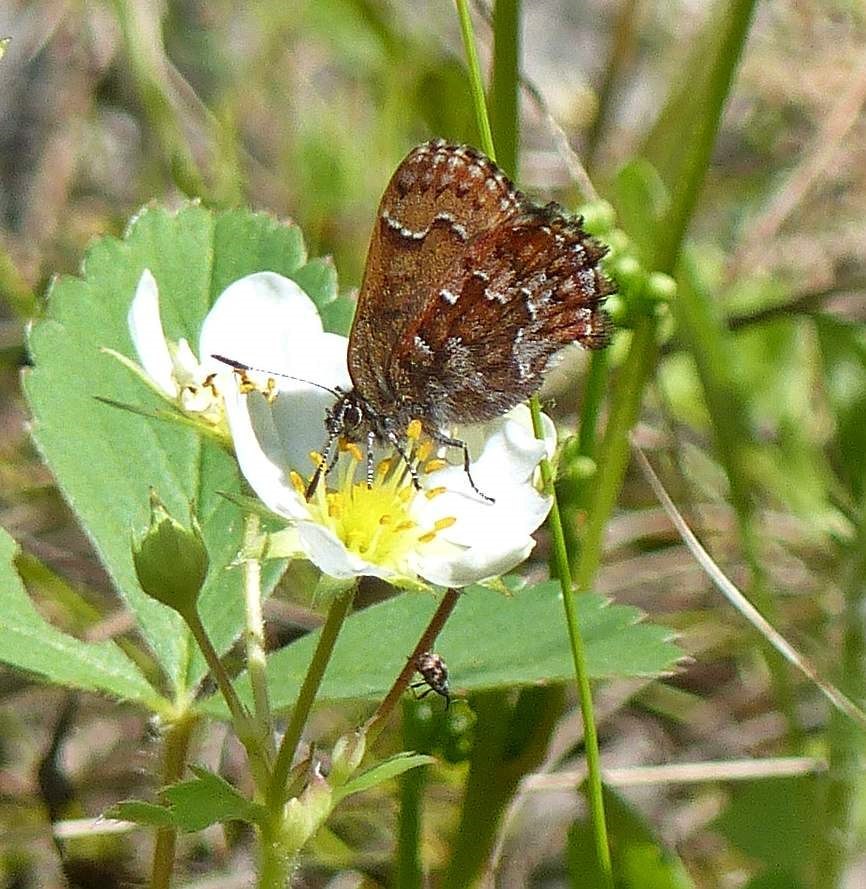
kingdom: Animalia
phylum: Arthropoda
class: Insecta
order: Lepidoptera
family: Lycaenidae
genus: Incisalia
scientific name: Incisalia niphon
